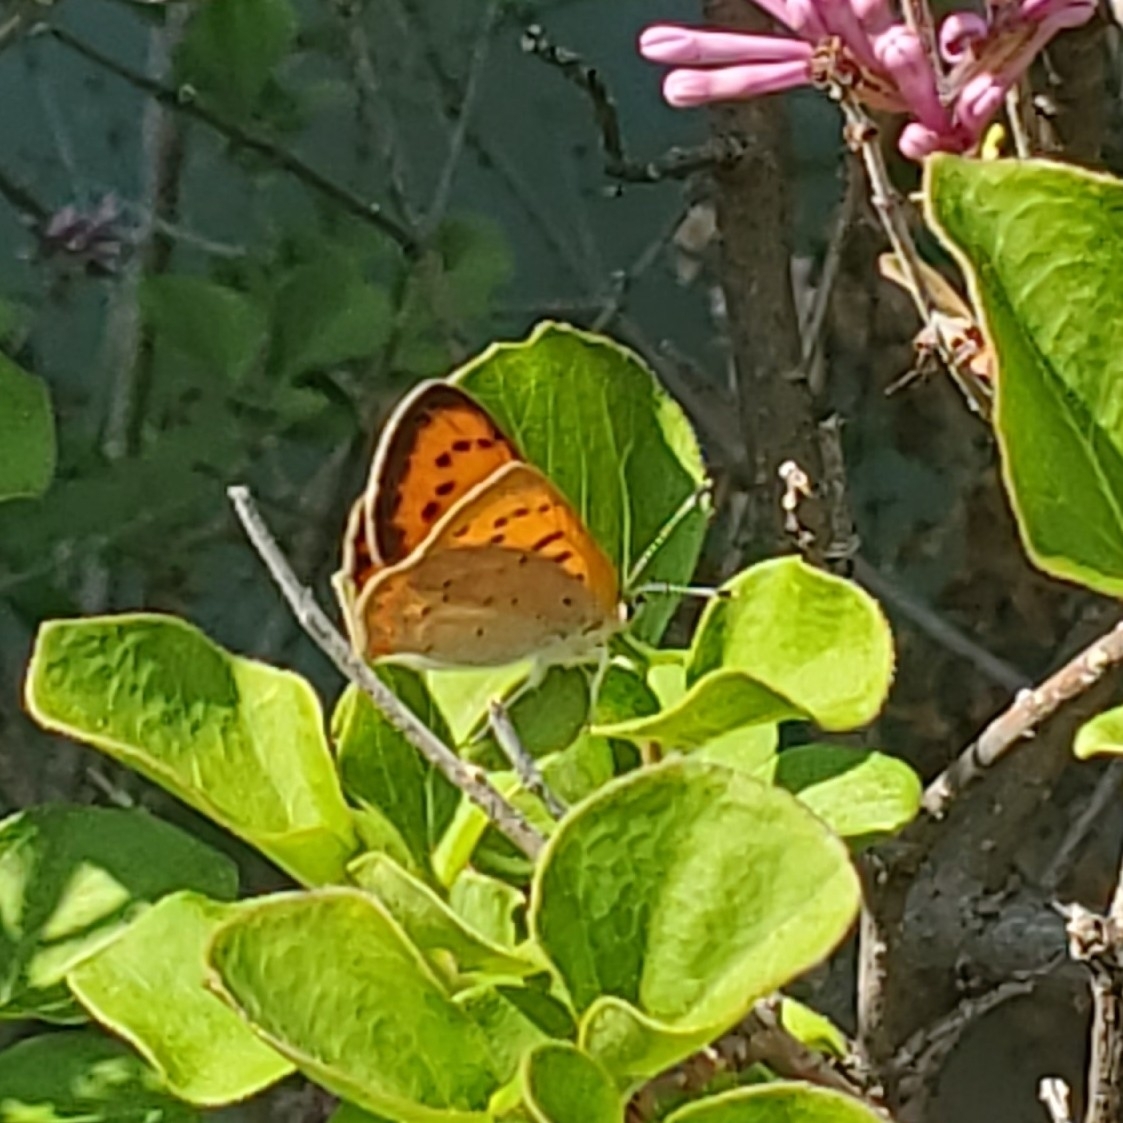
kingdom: Animalia
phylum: Arthropoda
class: Insecta
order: Lepidoptera
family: Lycaenidae
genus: Tharsalea
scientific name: Tharsalea helloides
